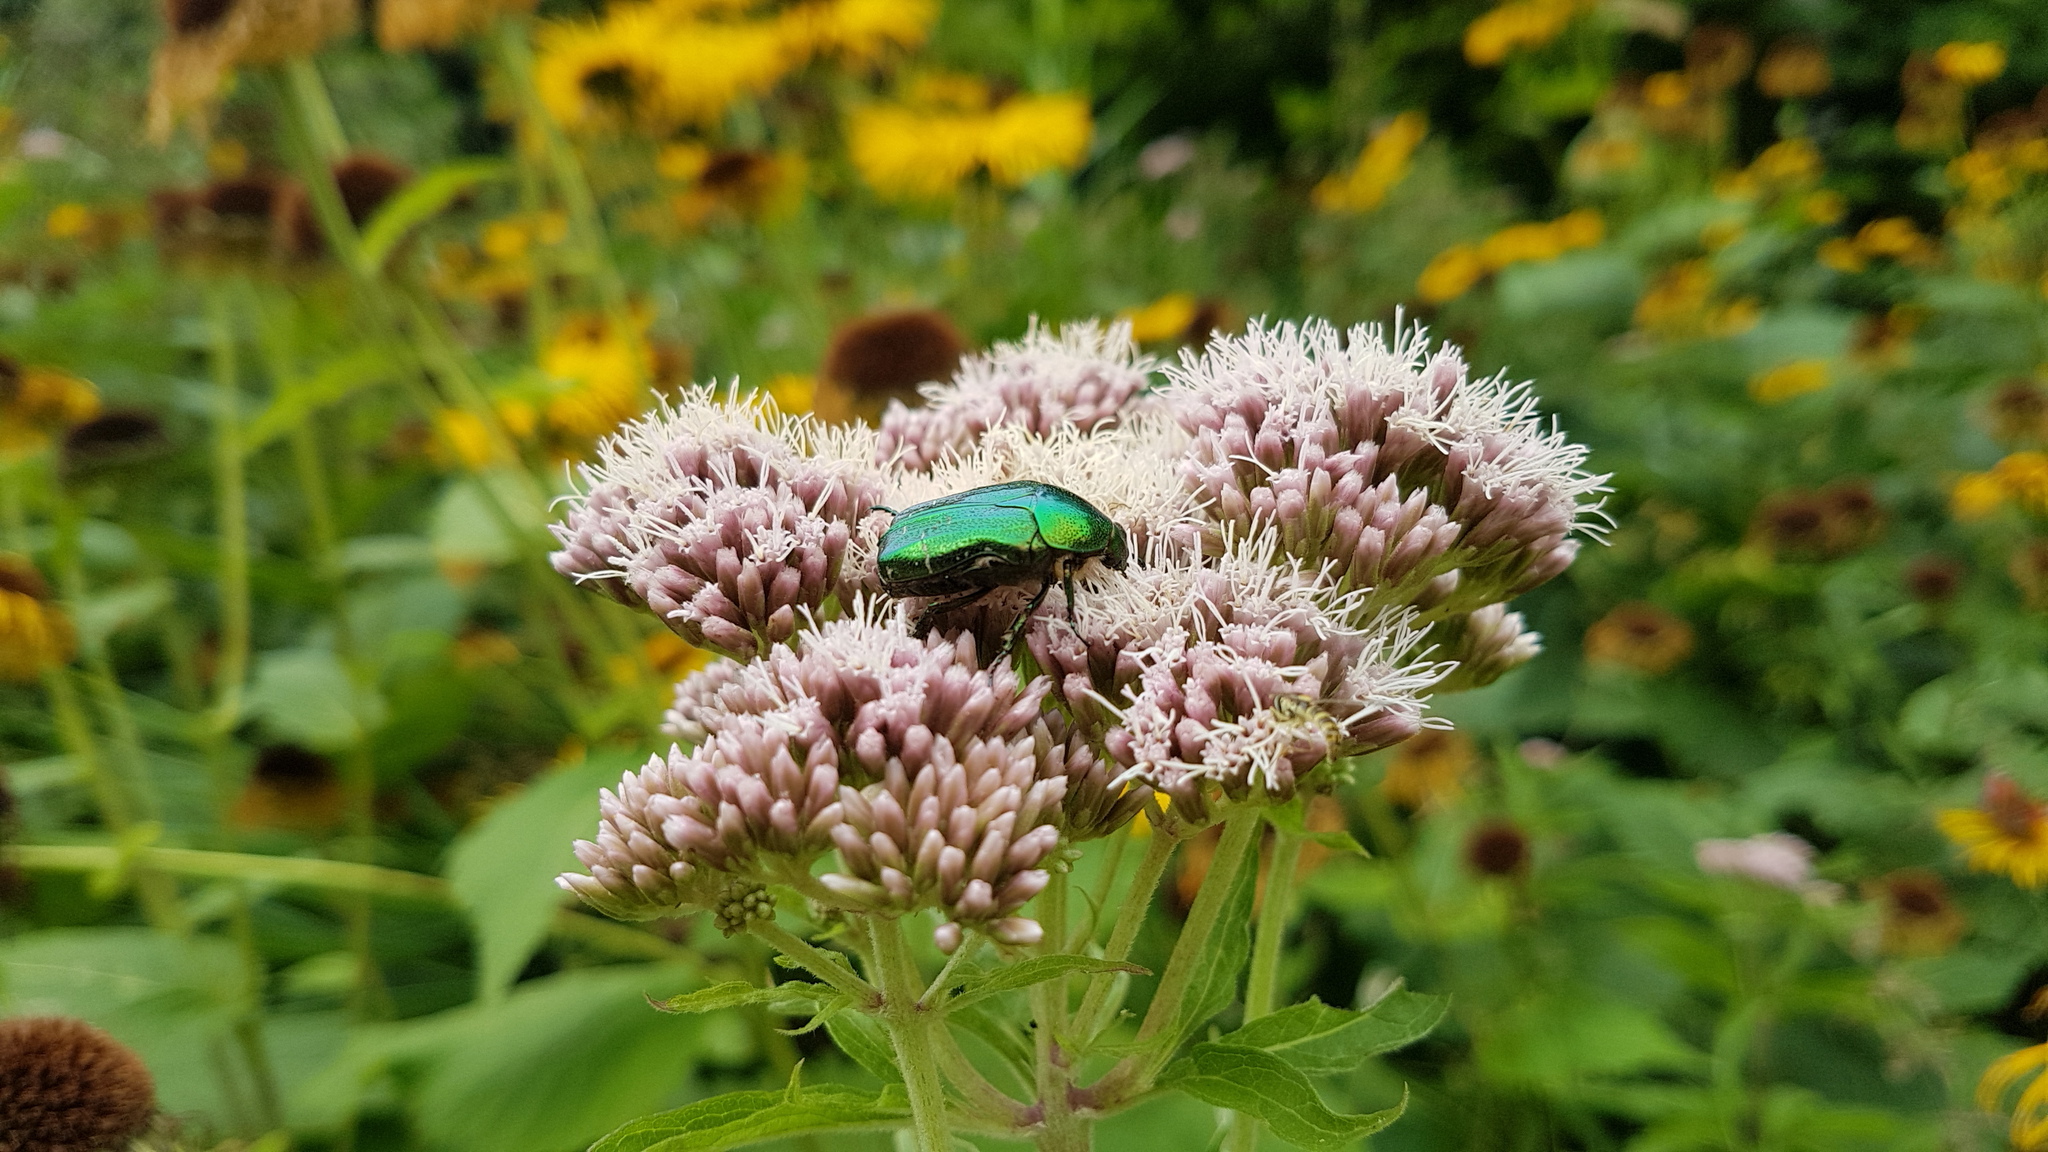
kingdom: Animalia
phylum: Arthropoda
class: Insecta
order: Coleoptera
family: Scarabaeidae
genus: Cetonia
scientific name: Cetonia aurata
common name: Rose chafer
